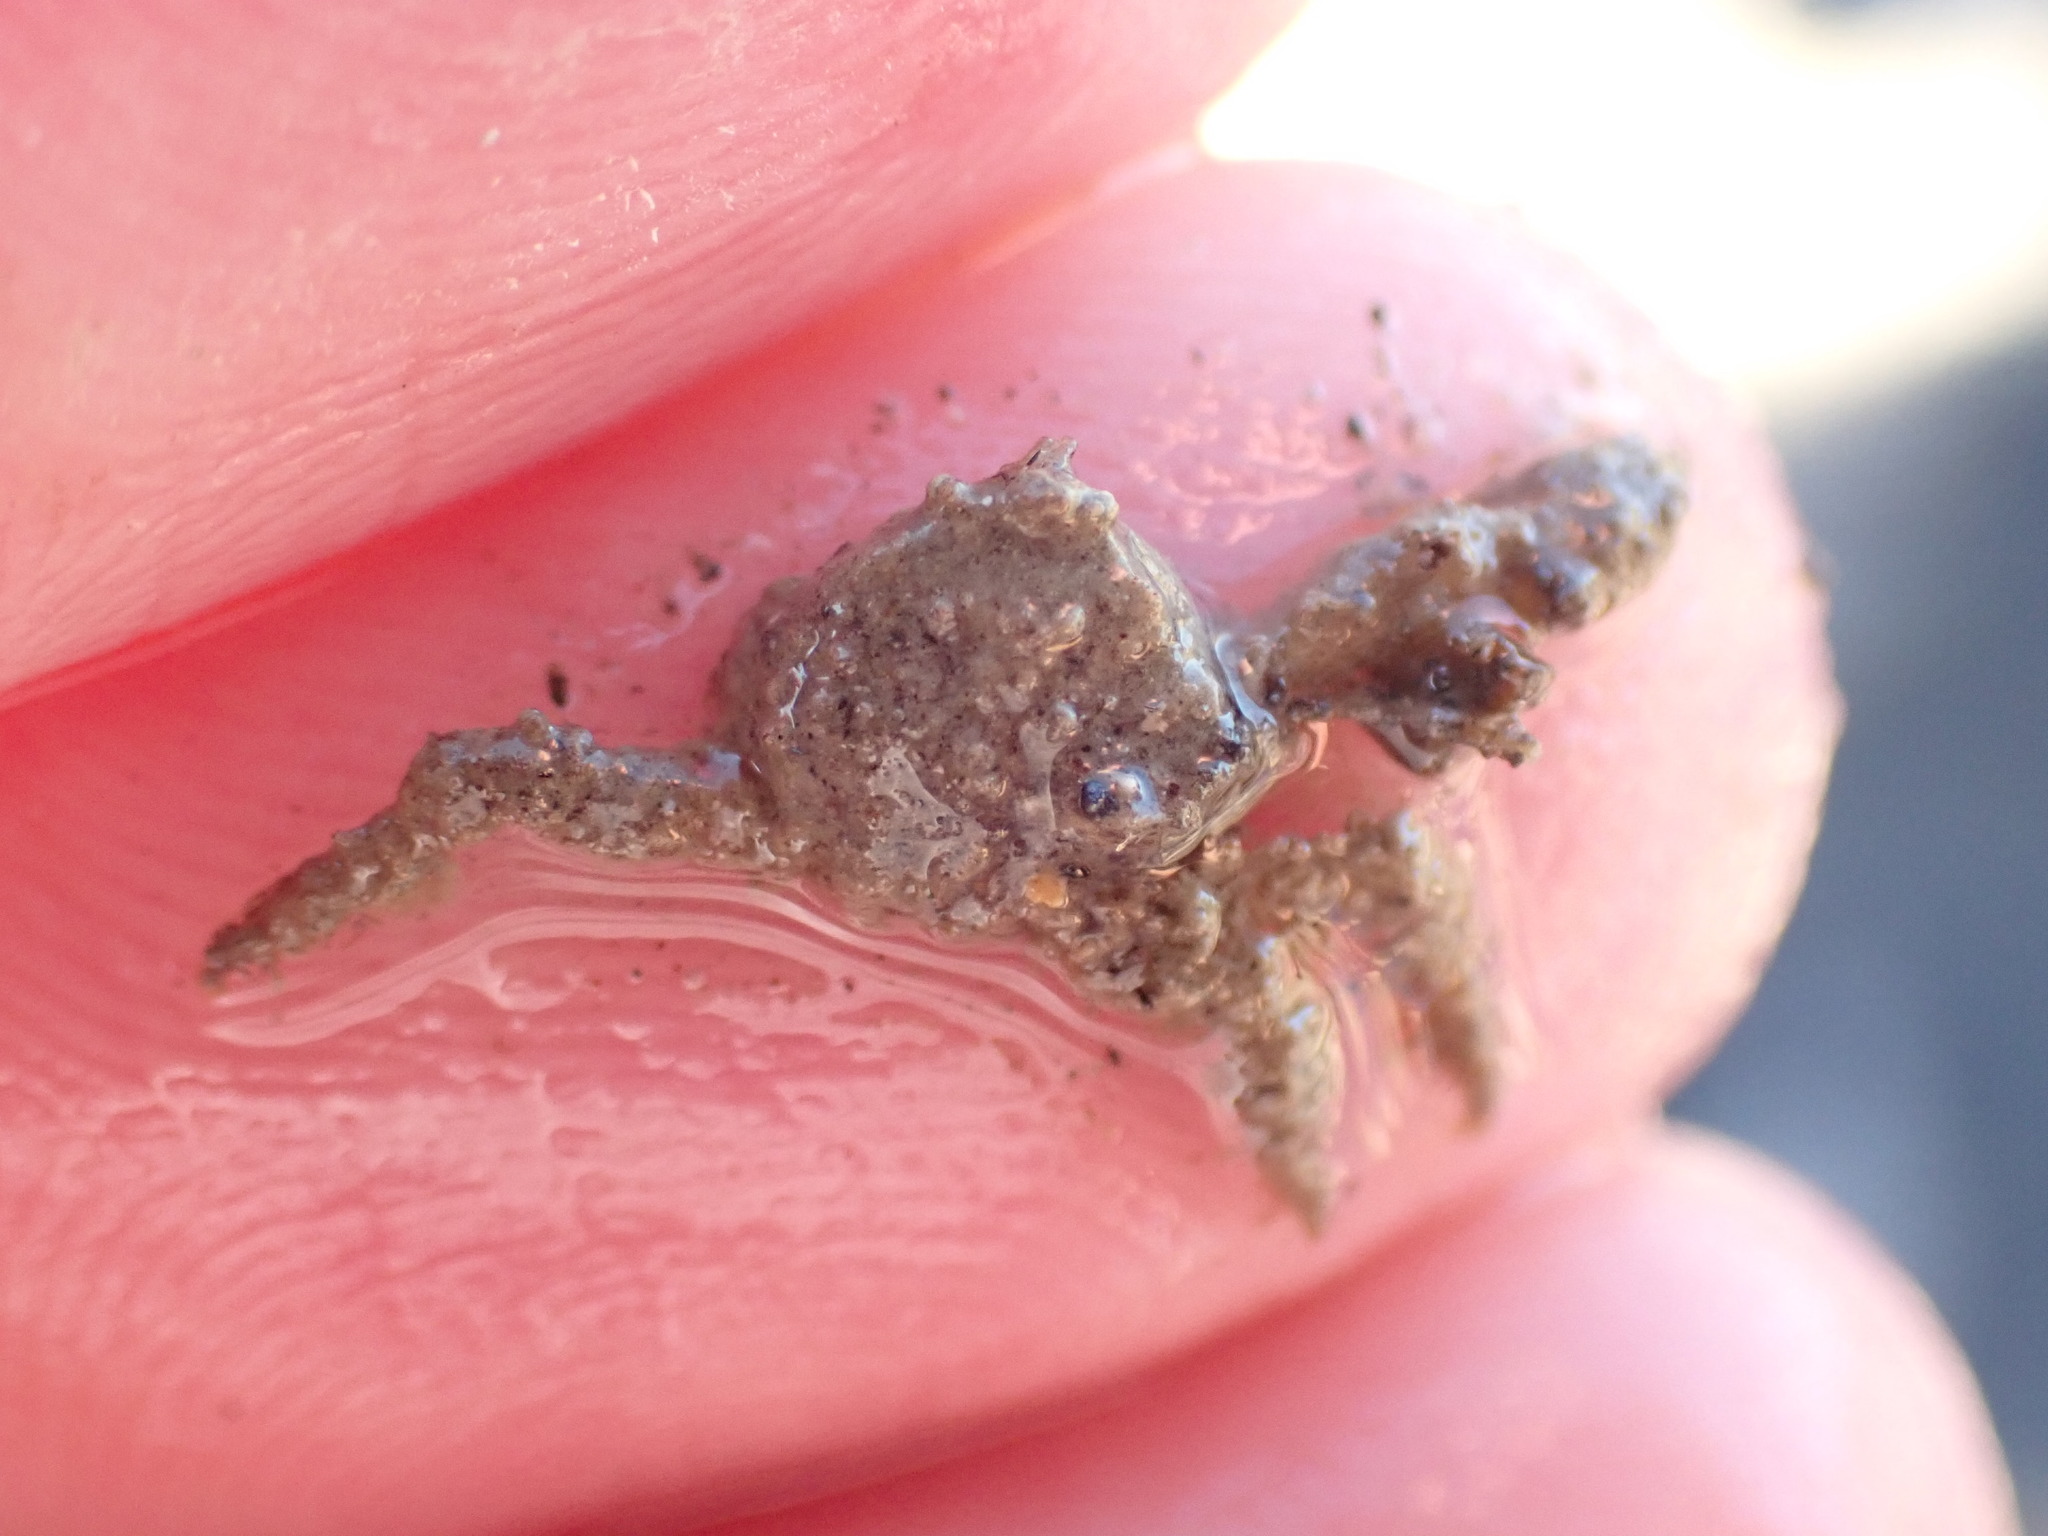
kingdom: Animalia
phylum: Arthropoda
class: Malacostraca
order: Decapoda
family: Hymenosomatidae
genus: Neohymenicus
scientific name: Neohymenicus pubescens
